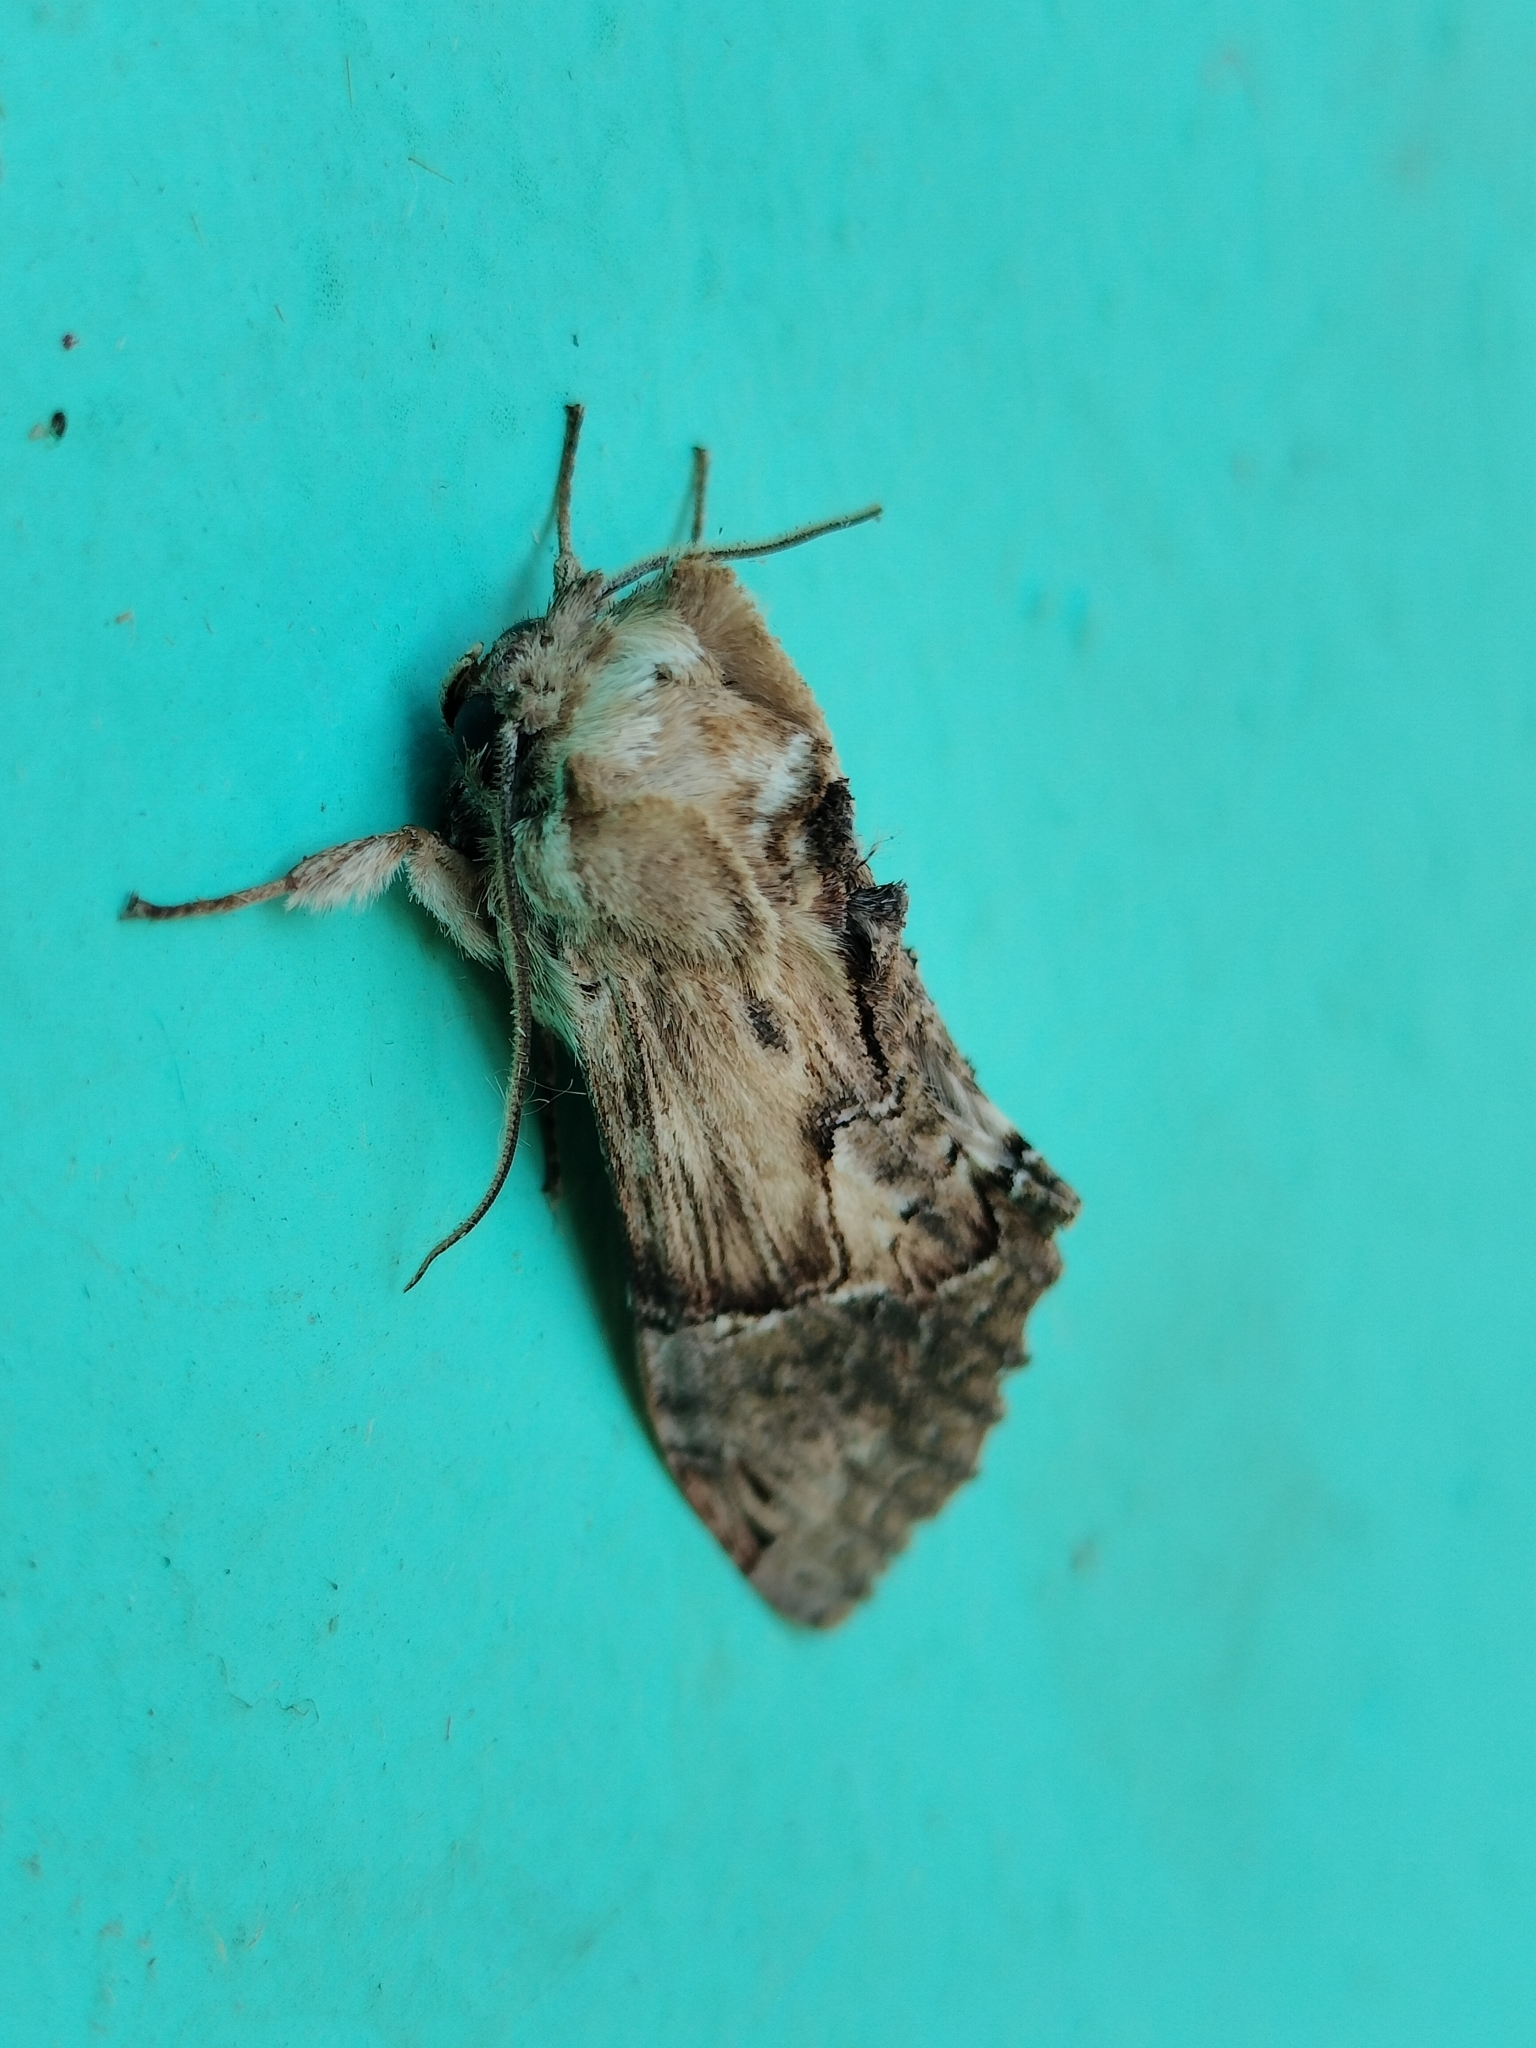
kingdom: Animalia
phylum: Arthropoda
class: Insecta
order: Lepidoptera
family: Notodontidae
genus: Chadisra
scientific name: Chadisra bipars
